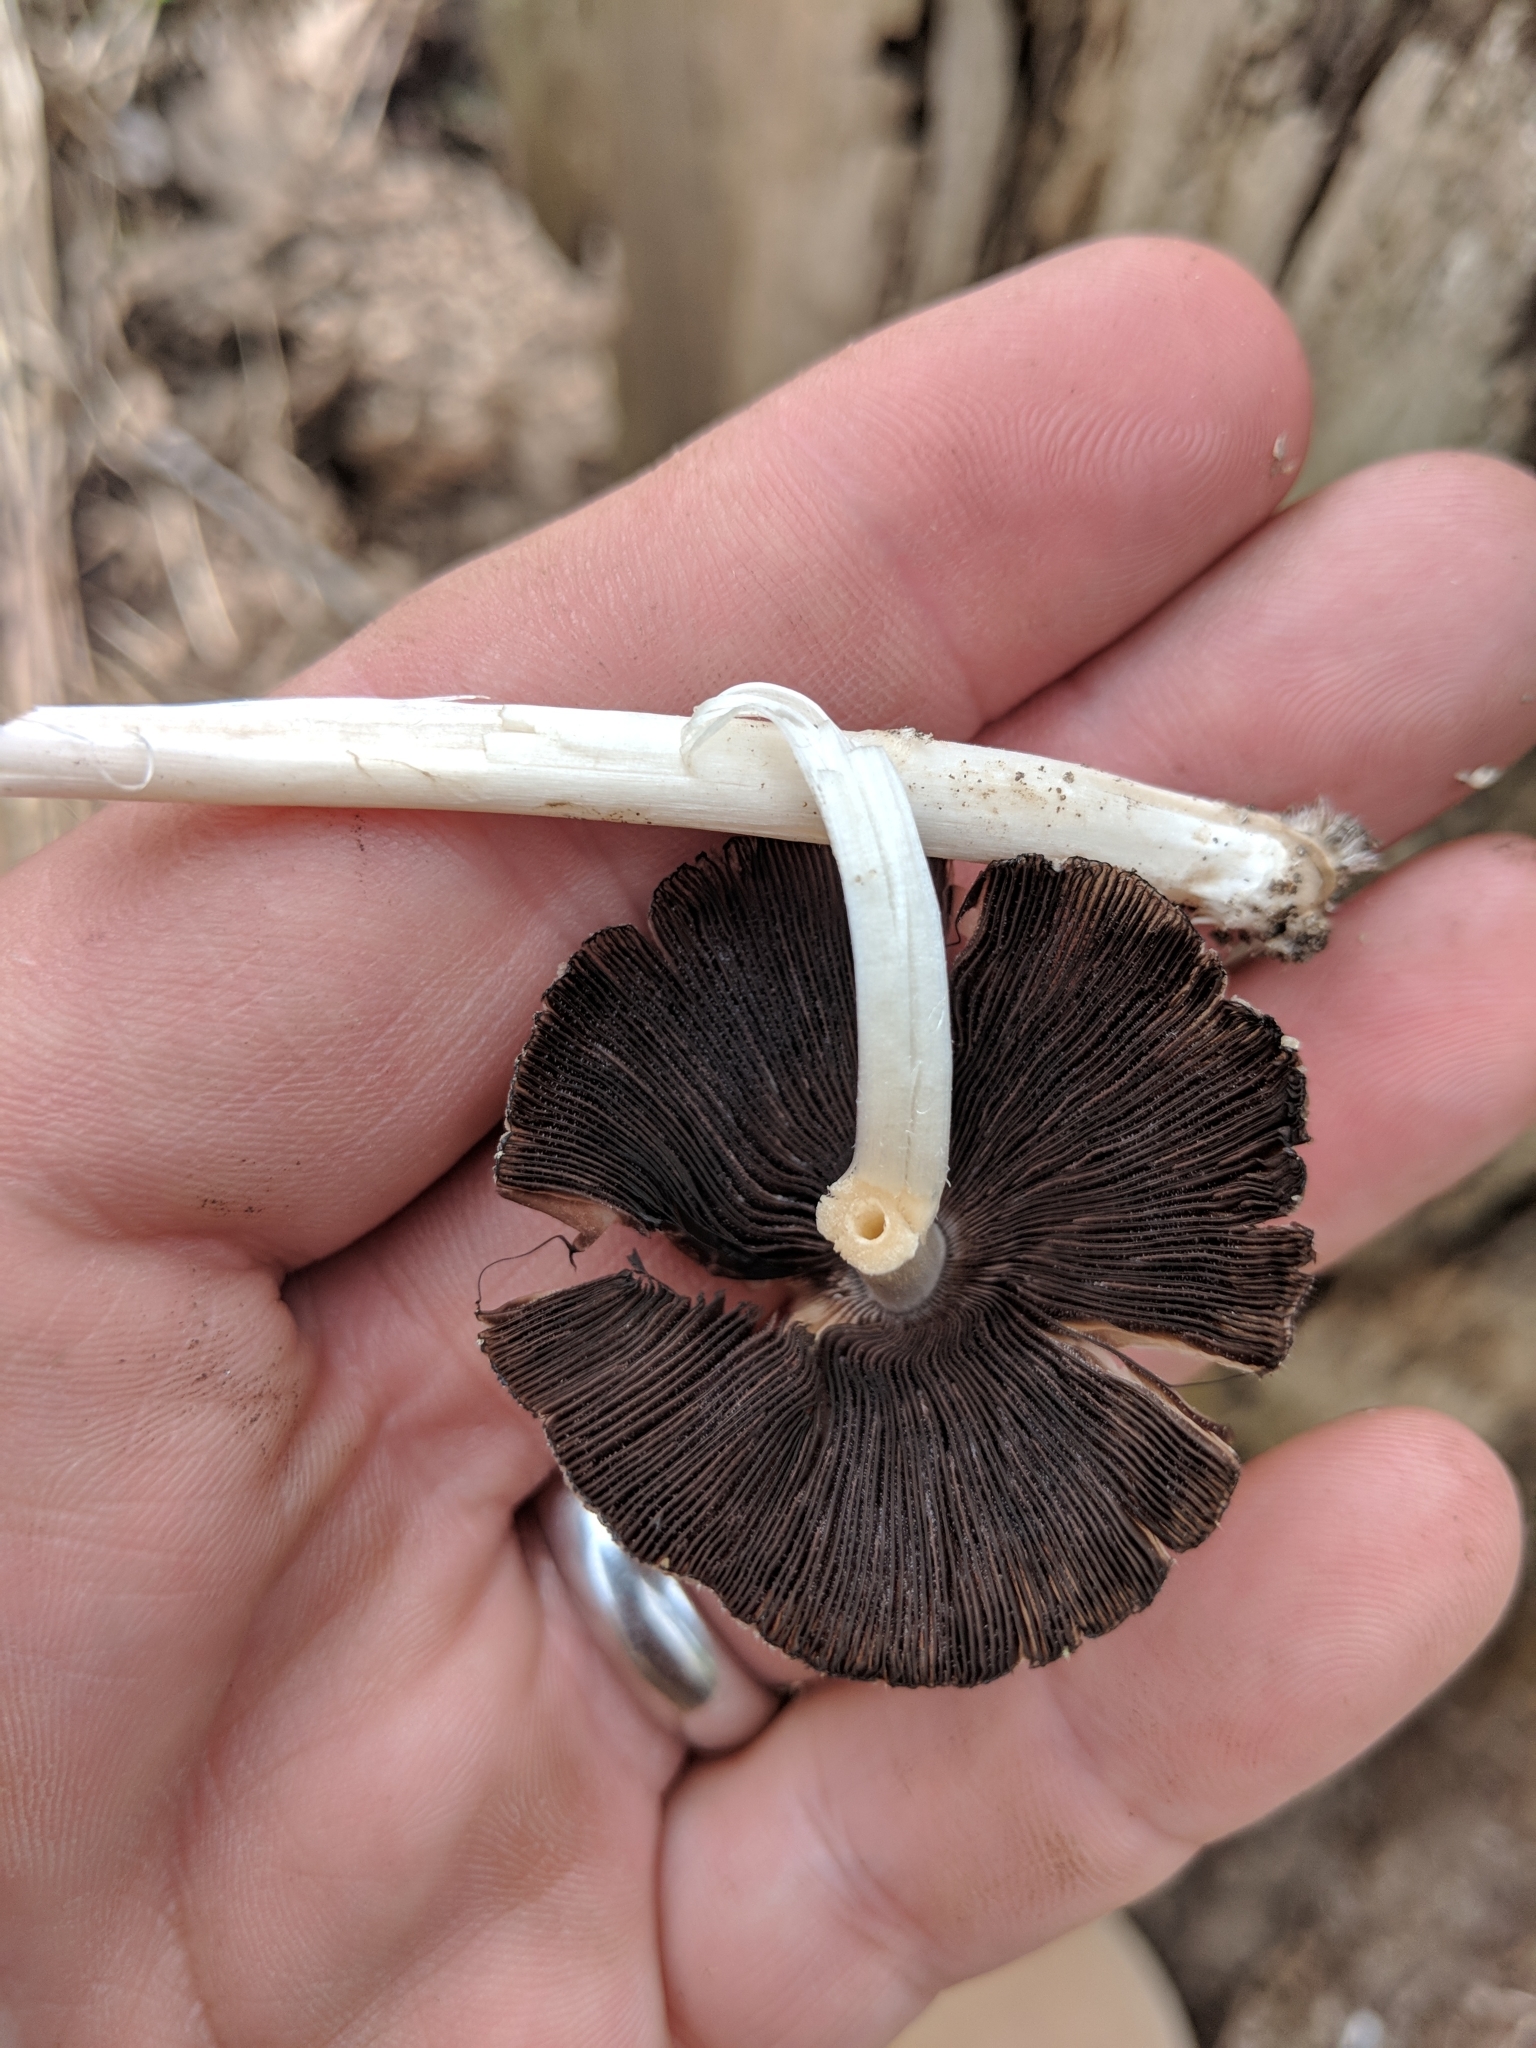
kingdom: Fungi
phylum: Basidiomycota
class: Agaricomycetes
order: Agaricales
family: Psathyrellaceae
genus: Coprinellus
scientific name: Coprinellus micaceus
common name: Glistening ink-cap
